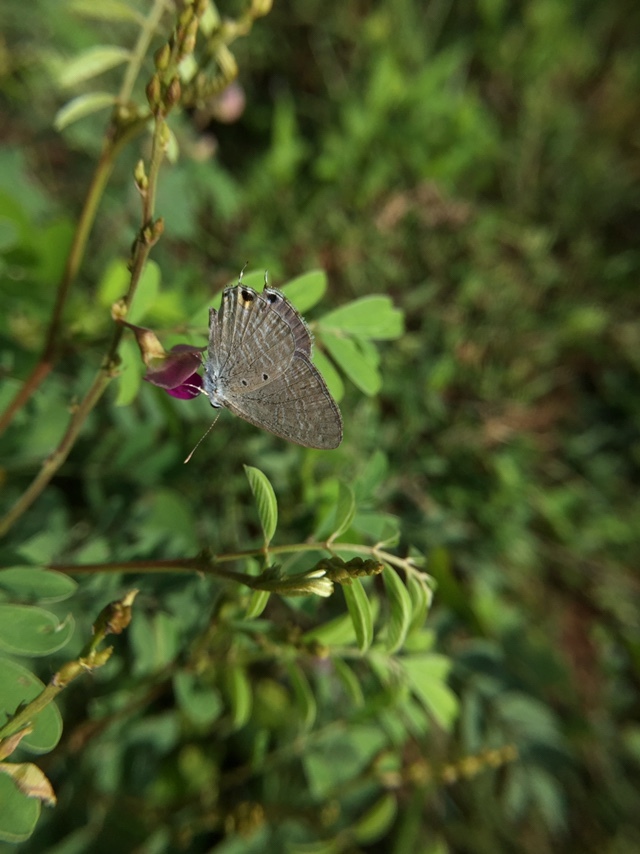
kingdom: Animalia
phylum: Arthropoda
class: Insecta
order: Lepidoptera
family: Lycaenidae
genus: Catochrysops
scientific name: Catochrysops strabo
